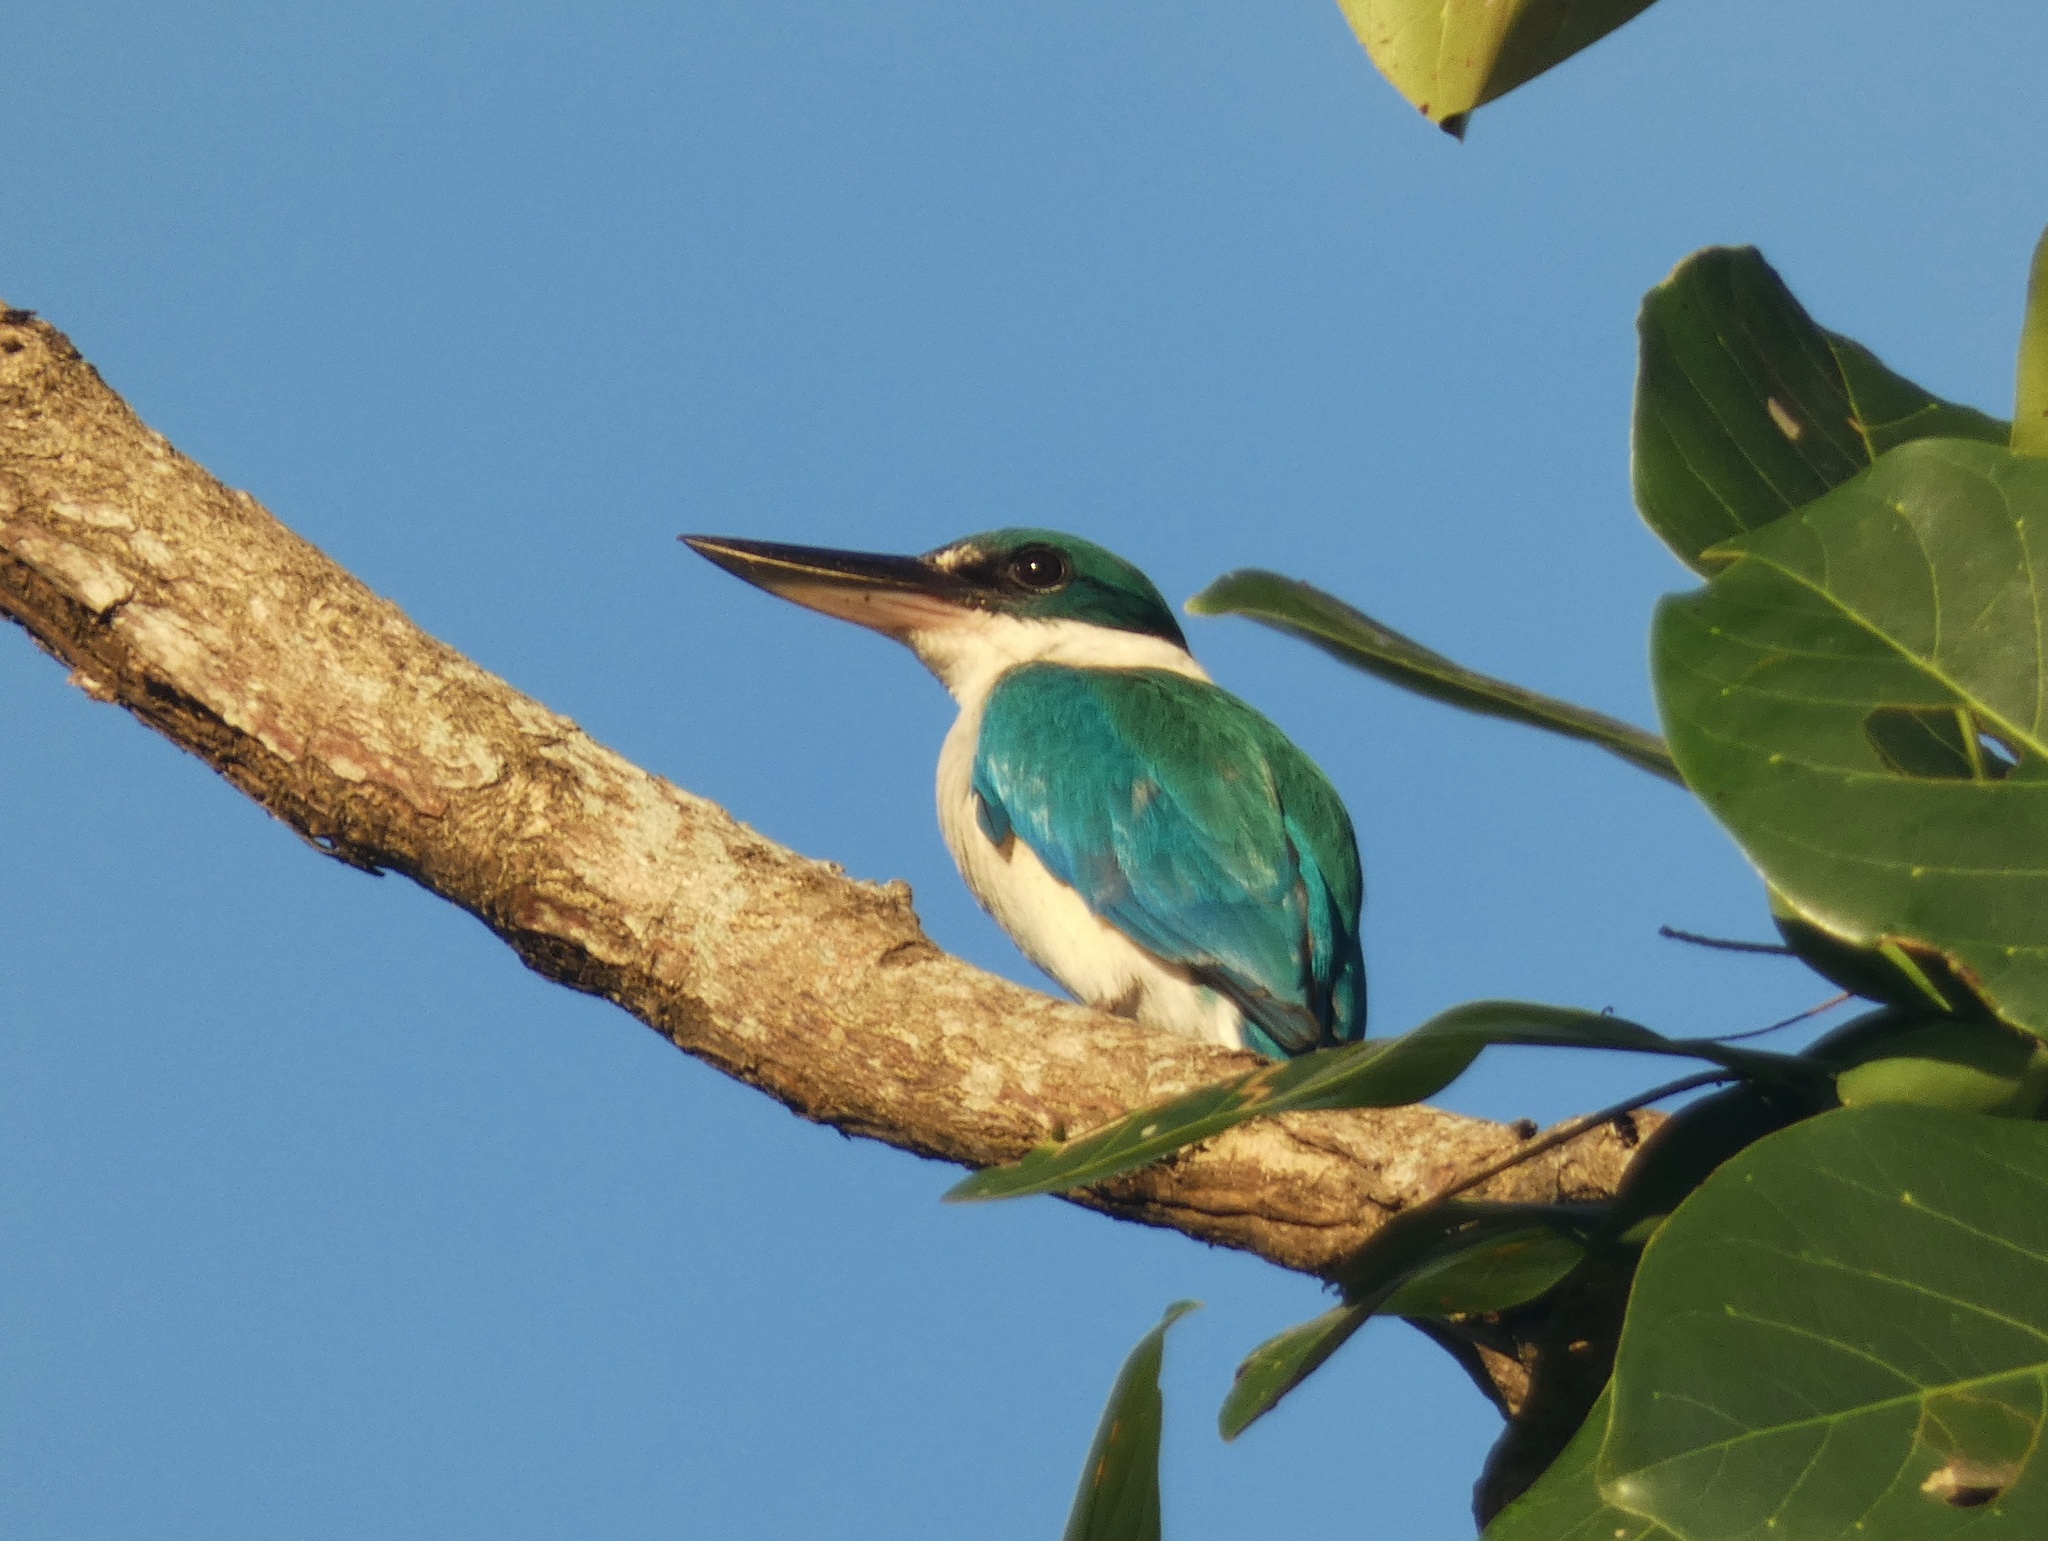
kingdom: Animalia
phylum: Chordata
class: Aves
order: Coraciiformes
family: Alcedinidae
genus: Todiramphus
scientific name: Todiramphus chloris
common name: Collared kingfisher
